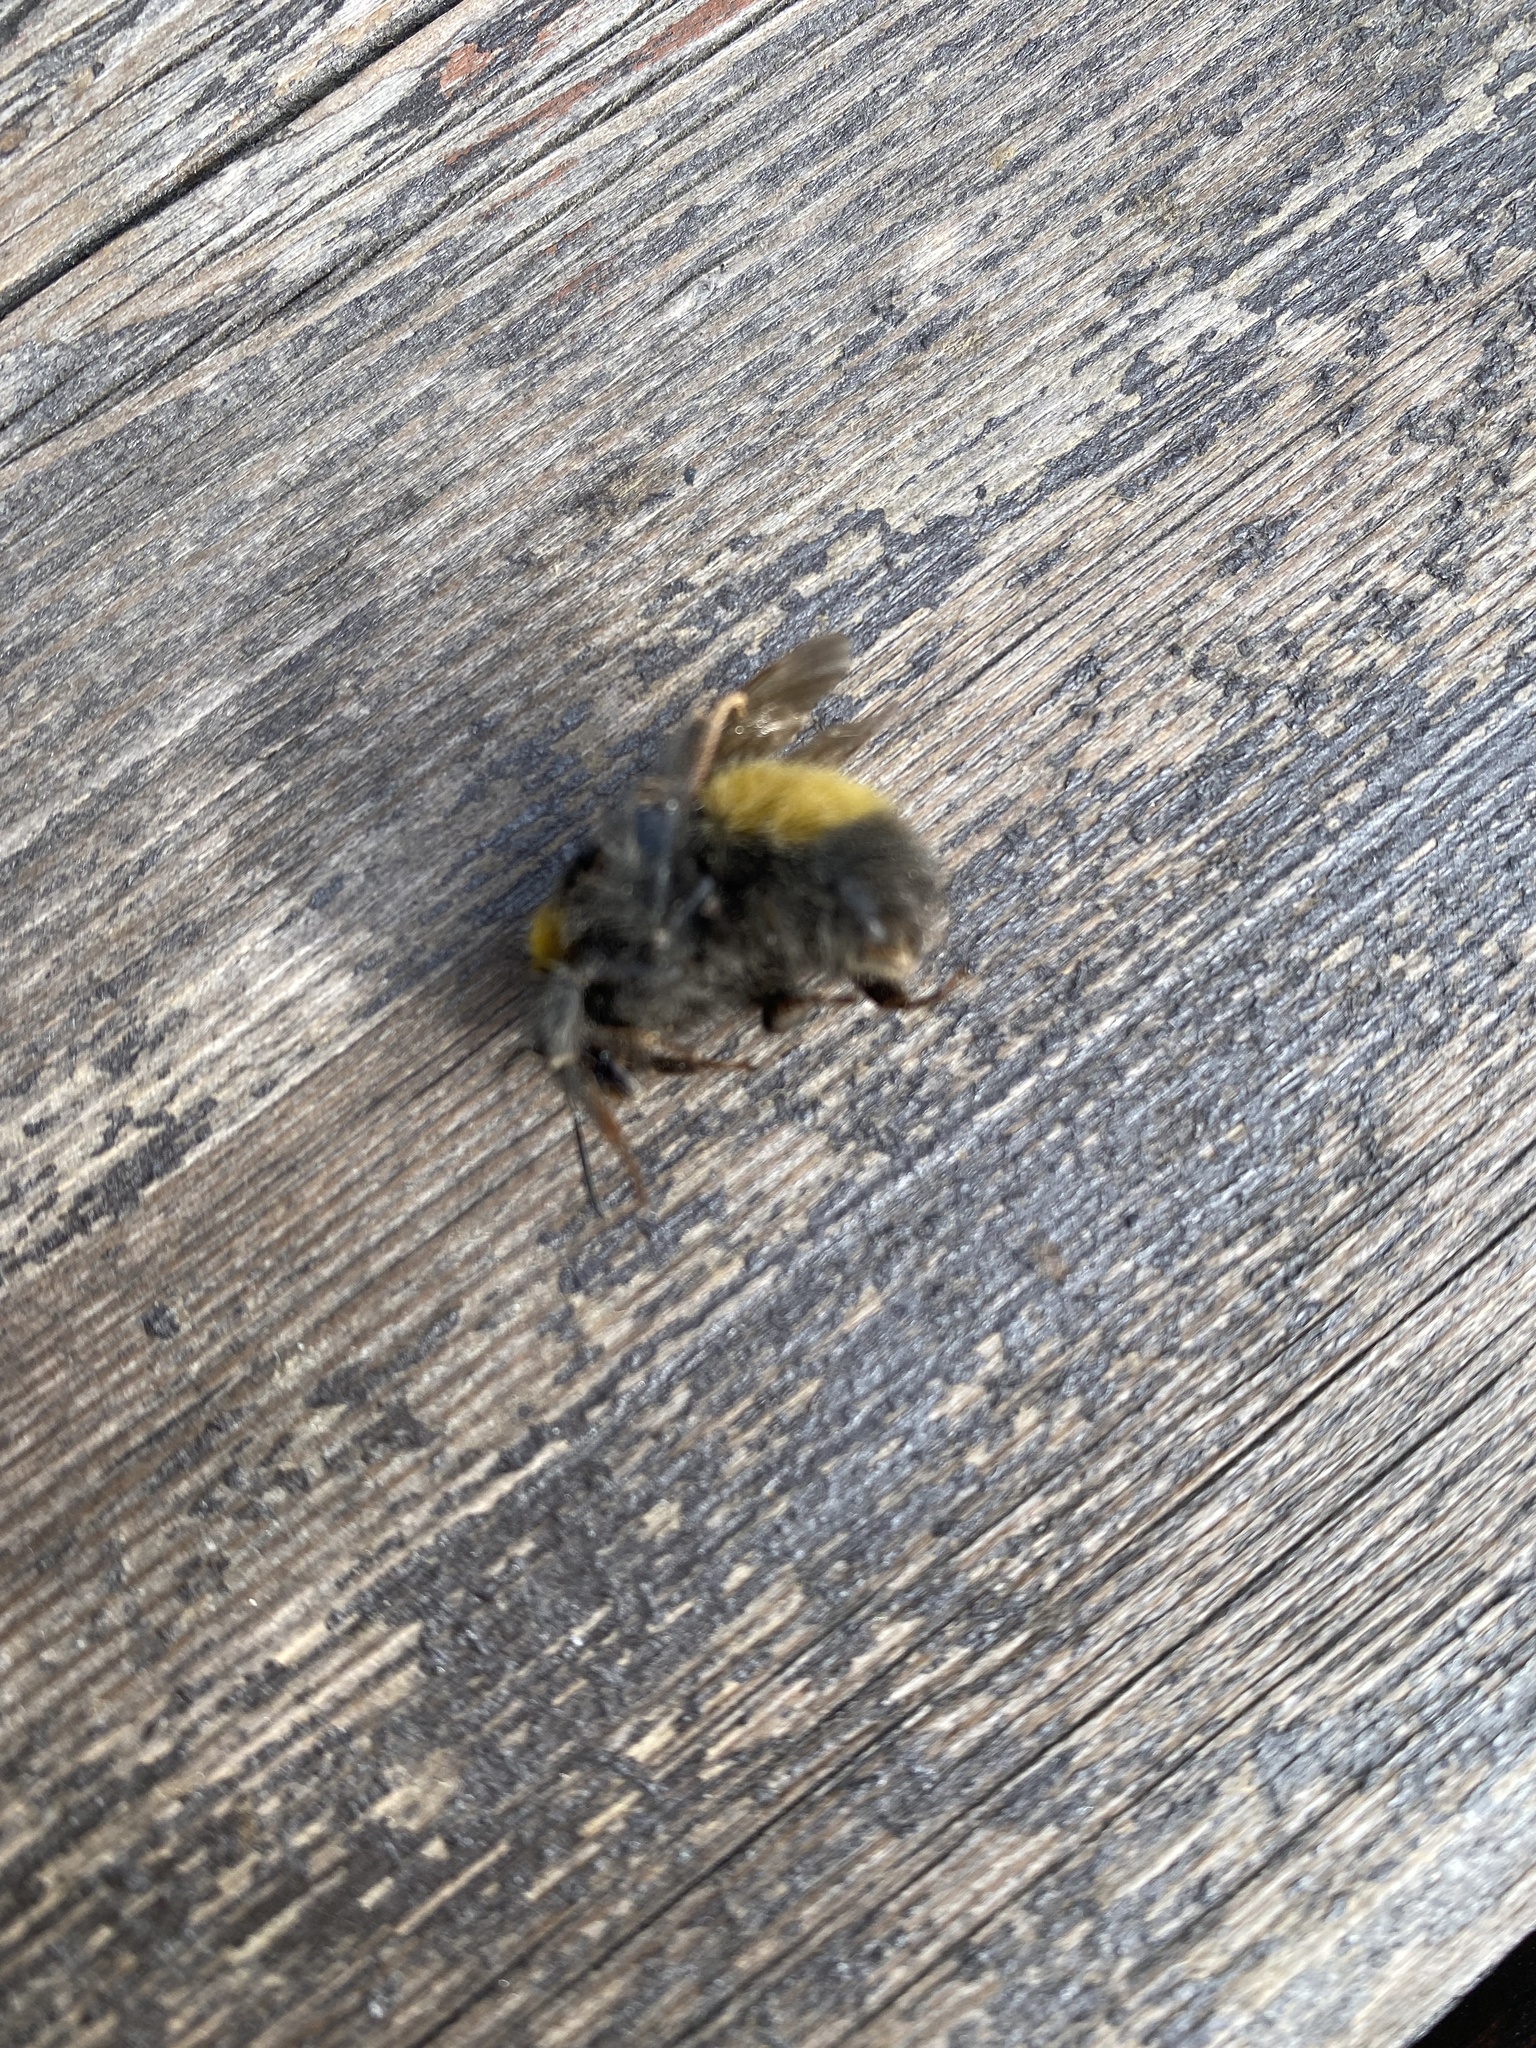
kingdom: Animalia
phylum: Arthropoda
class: Insecta
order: Hymenoptera
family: Apidae
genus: Bombus
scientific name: Bombus haematurus
